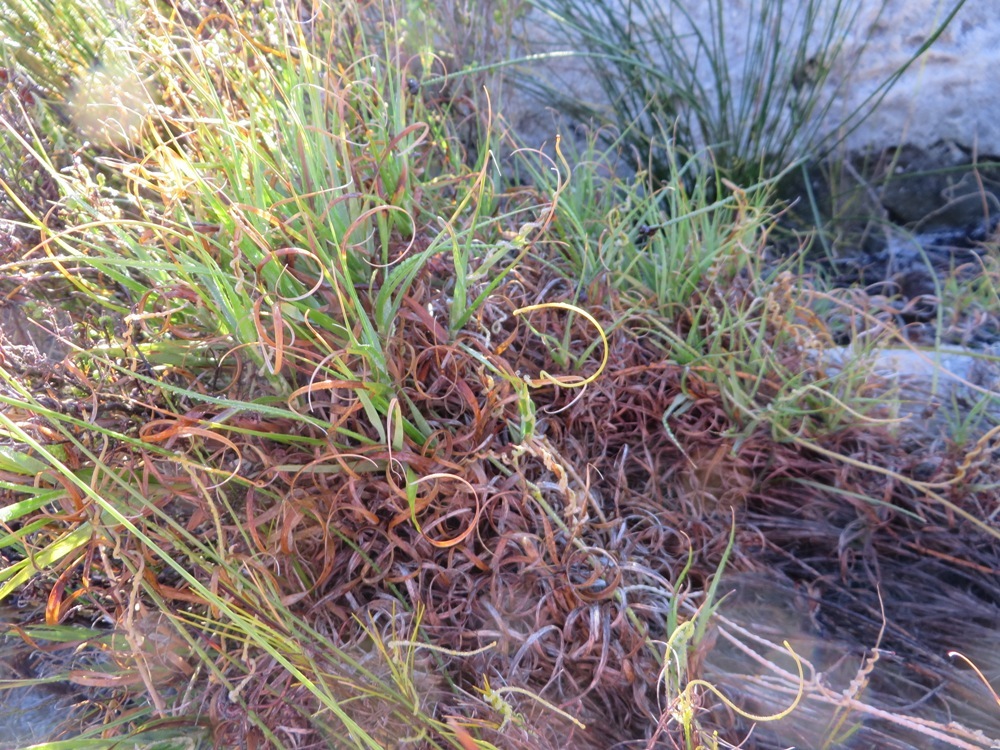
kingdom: Plantae
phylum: Tracheophyta
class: Liliopsida
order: Poales
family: Poaceae
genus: Cenchrus
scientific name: Cenchrus clandestinus
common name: Kikuyugrass
